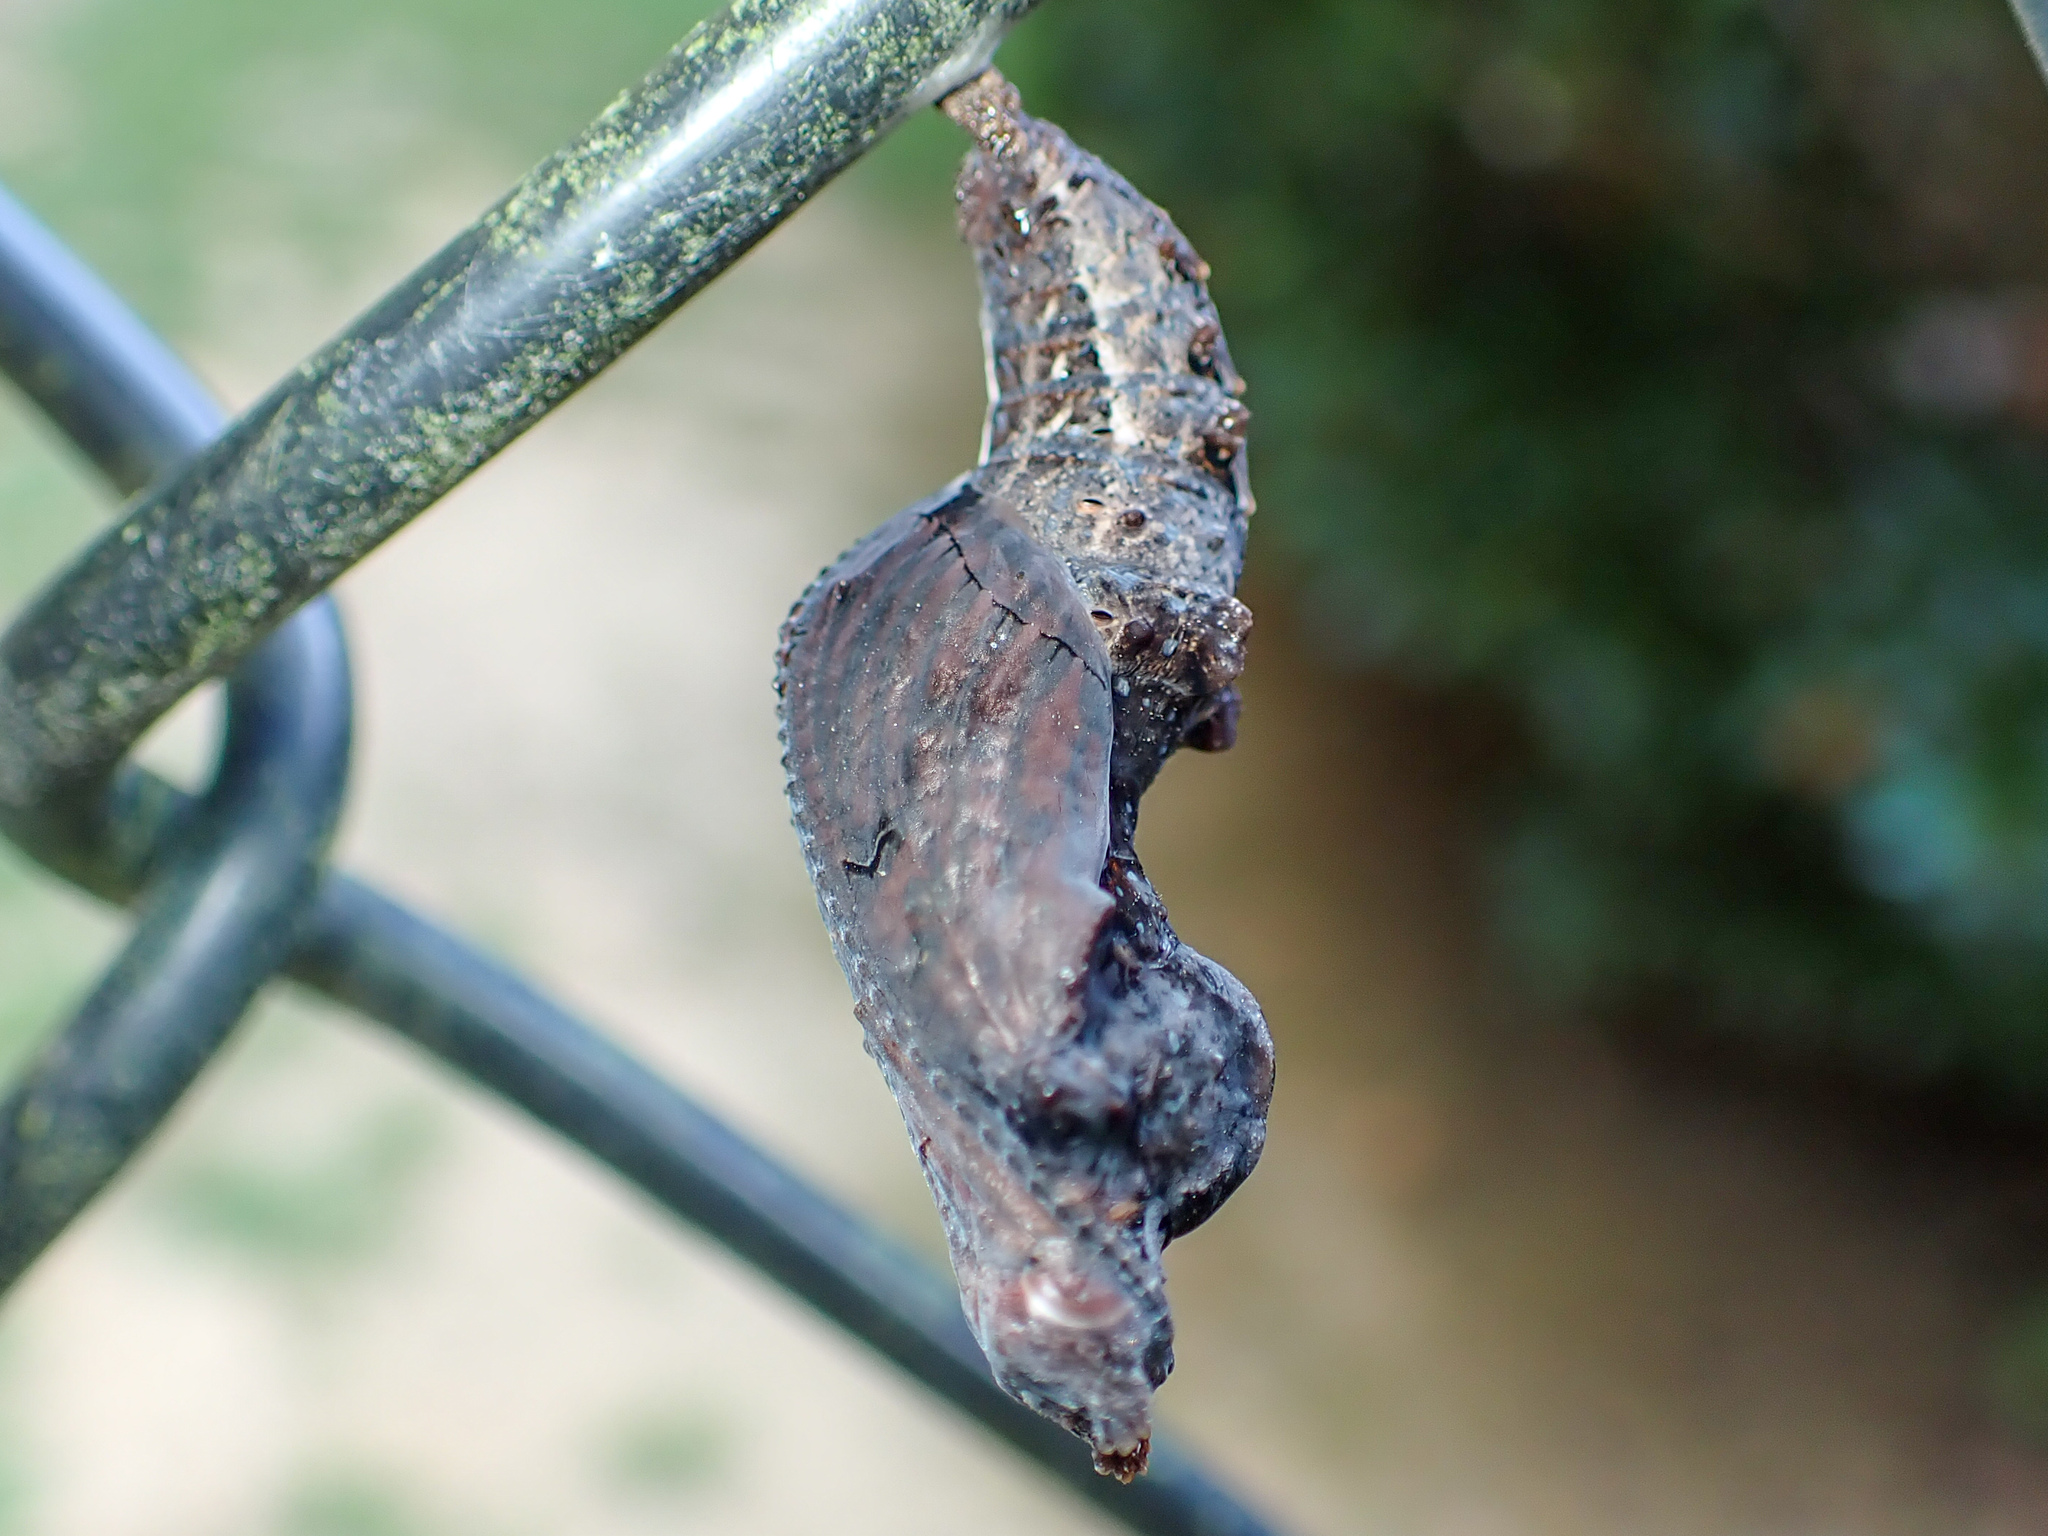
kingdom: Animalia
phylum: Arthropoda
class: Insecta
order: Lepidoptera
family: Nymphalidae
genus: Dione
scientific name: Dione vanillae
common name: Gulf fritillary
